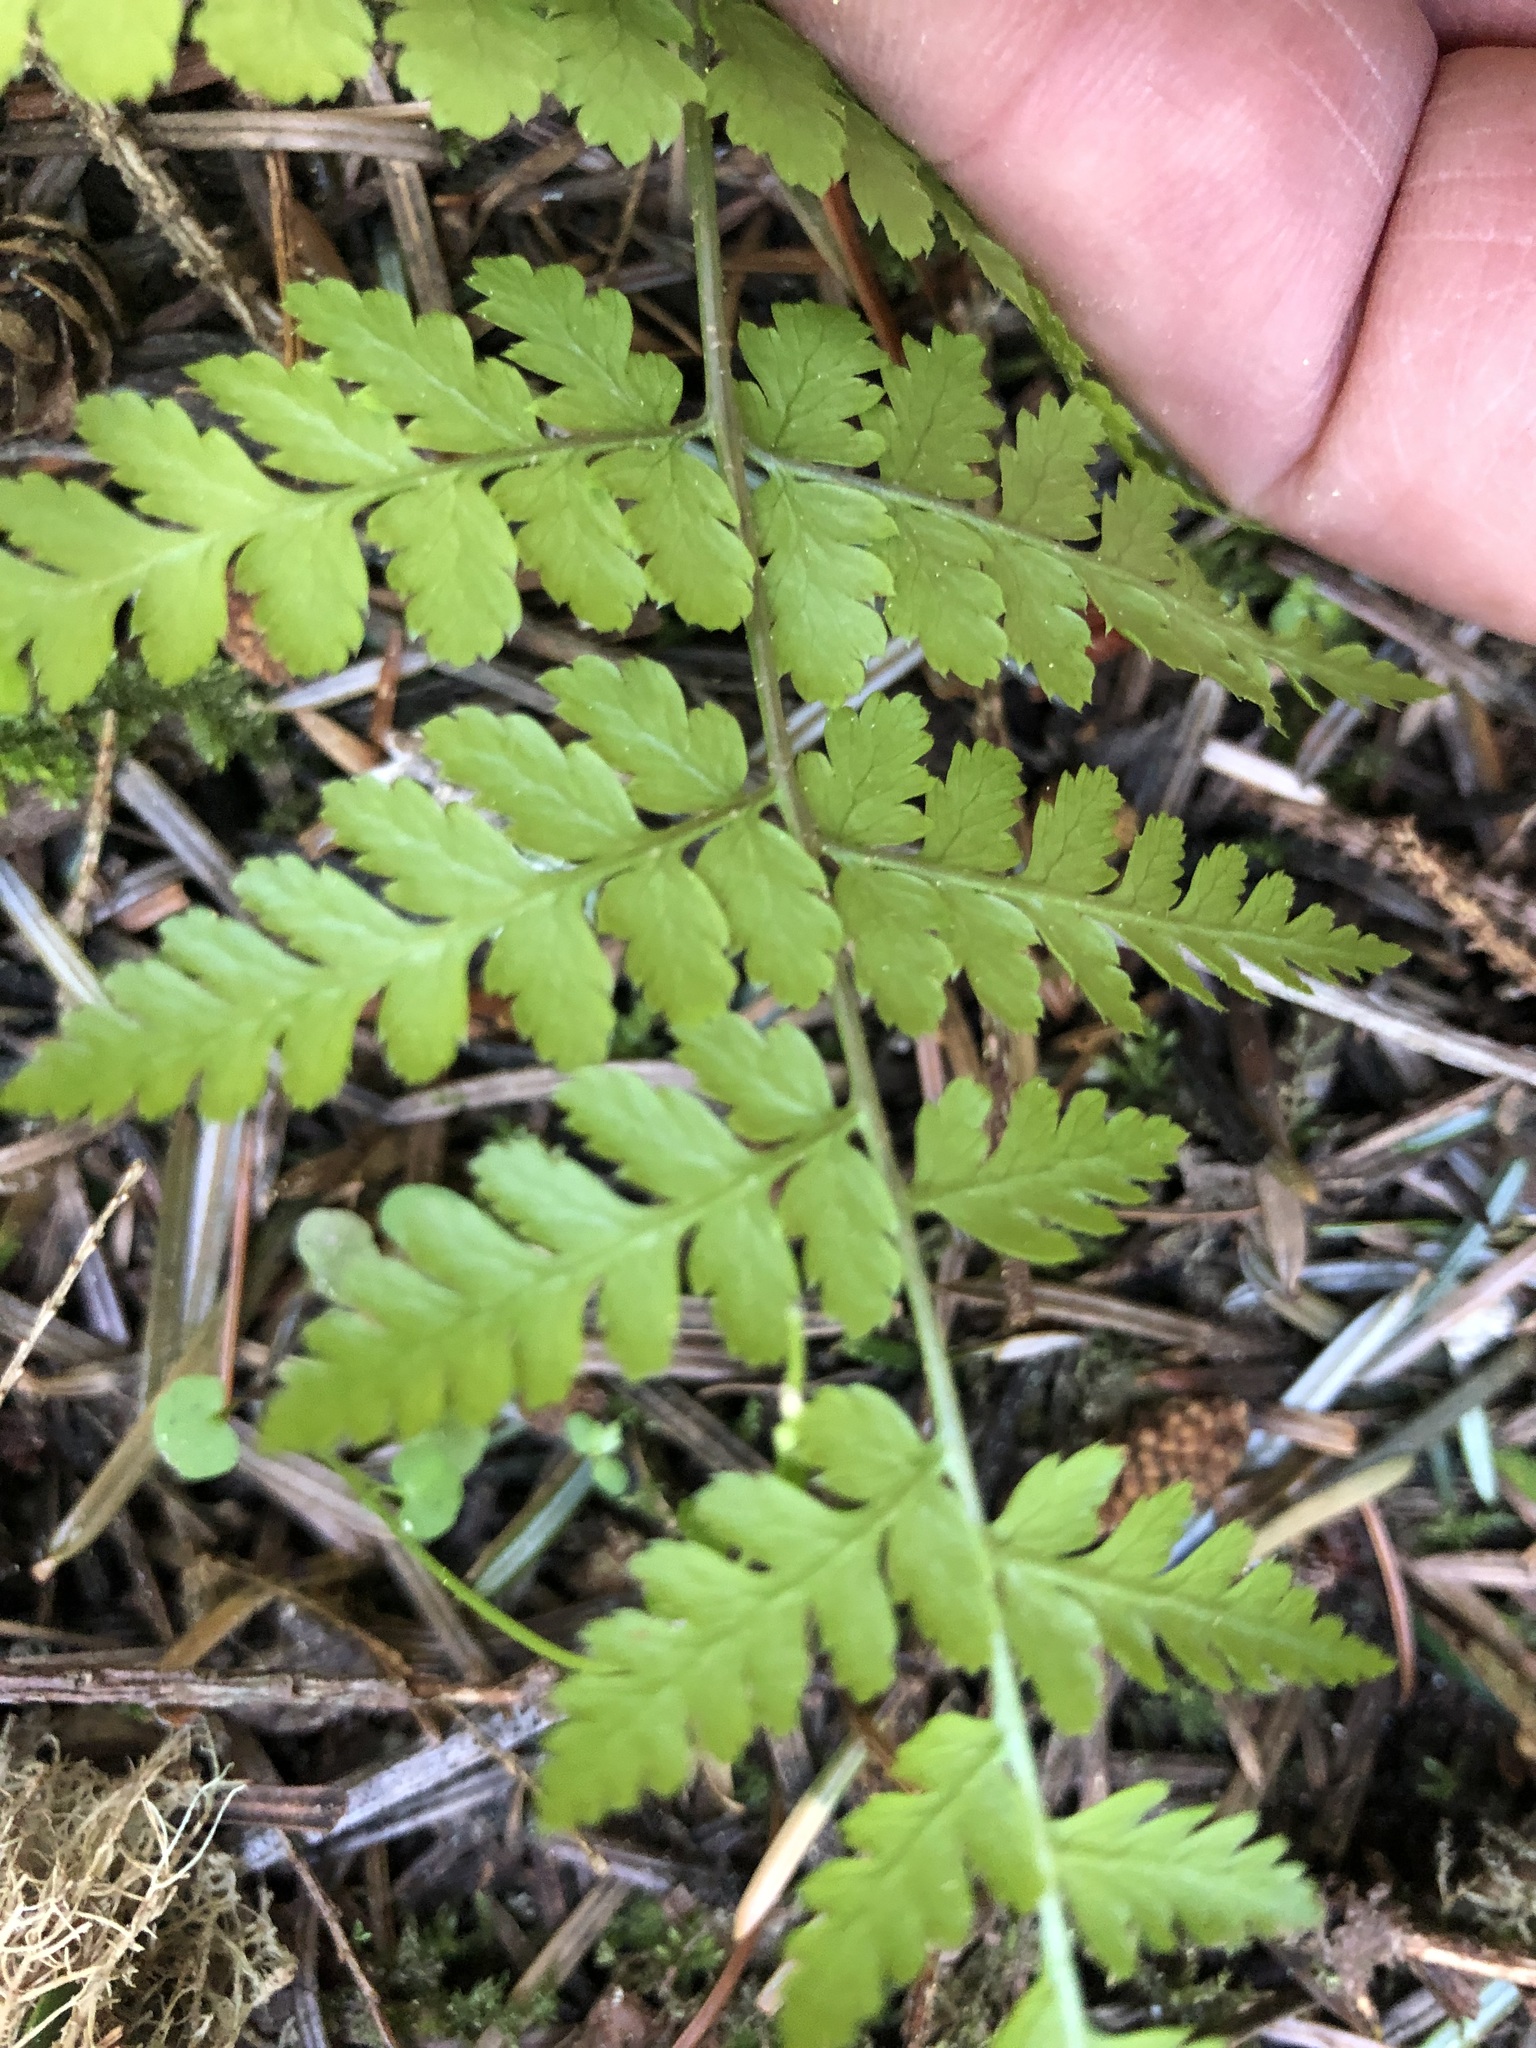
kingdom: Plantae
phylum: Tracheophyta
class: Polypodiopsida
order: Polypodiales
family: Dryopteridaceae
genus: Dryopteris
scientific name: Dryopteris expansa
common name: Northern buckler fern
